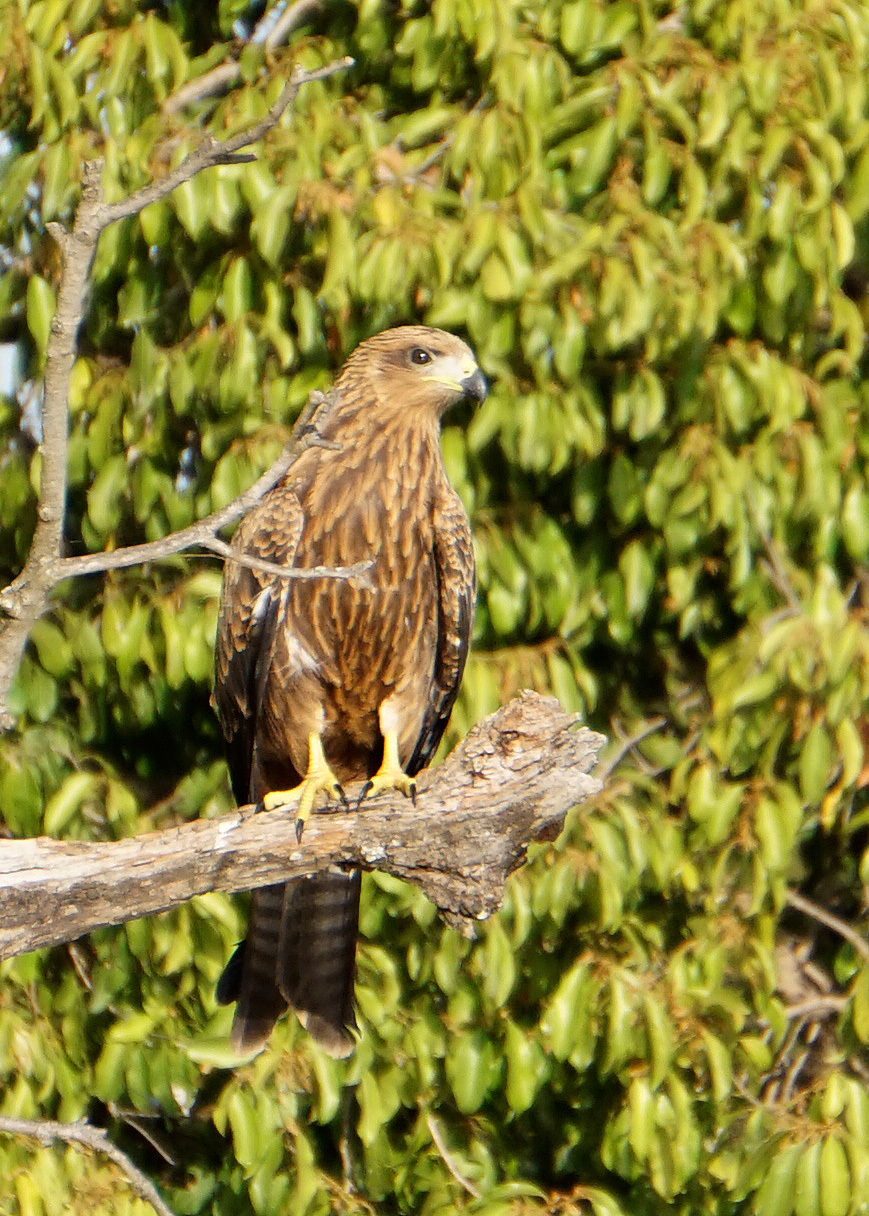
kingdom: Animalia
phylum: Chordata
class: Aves
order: Accipitriformes
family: Accipitridae
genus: Milvus
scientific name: Milvus migrans
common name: Black kite
